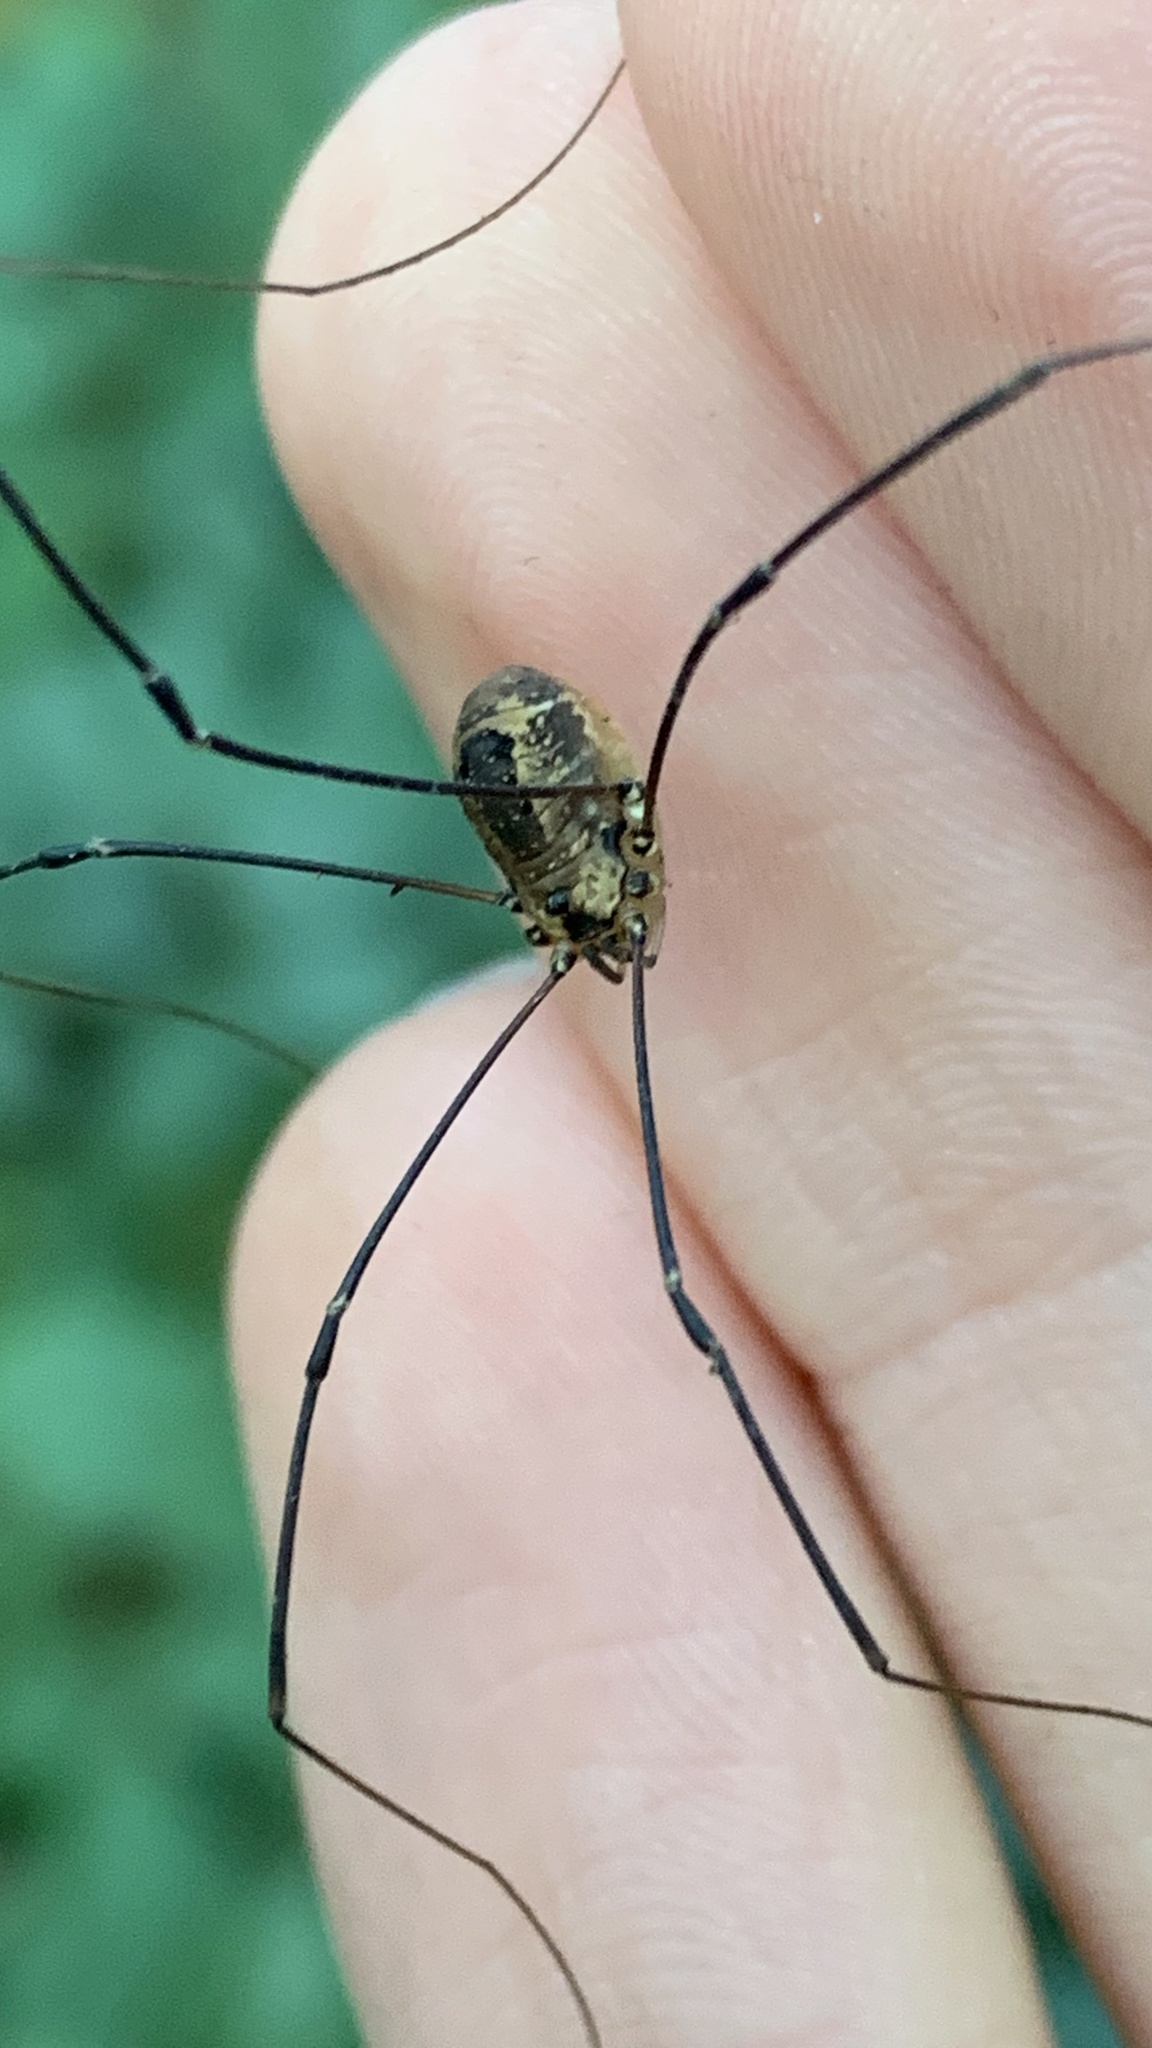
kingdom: Animalia
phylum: Arthropoda
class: Arachnida
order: Opiliones
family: Sclerosomatidae
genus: Leiobunum
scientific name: Leiobunum rotundum
